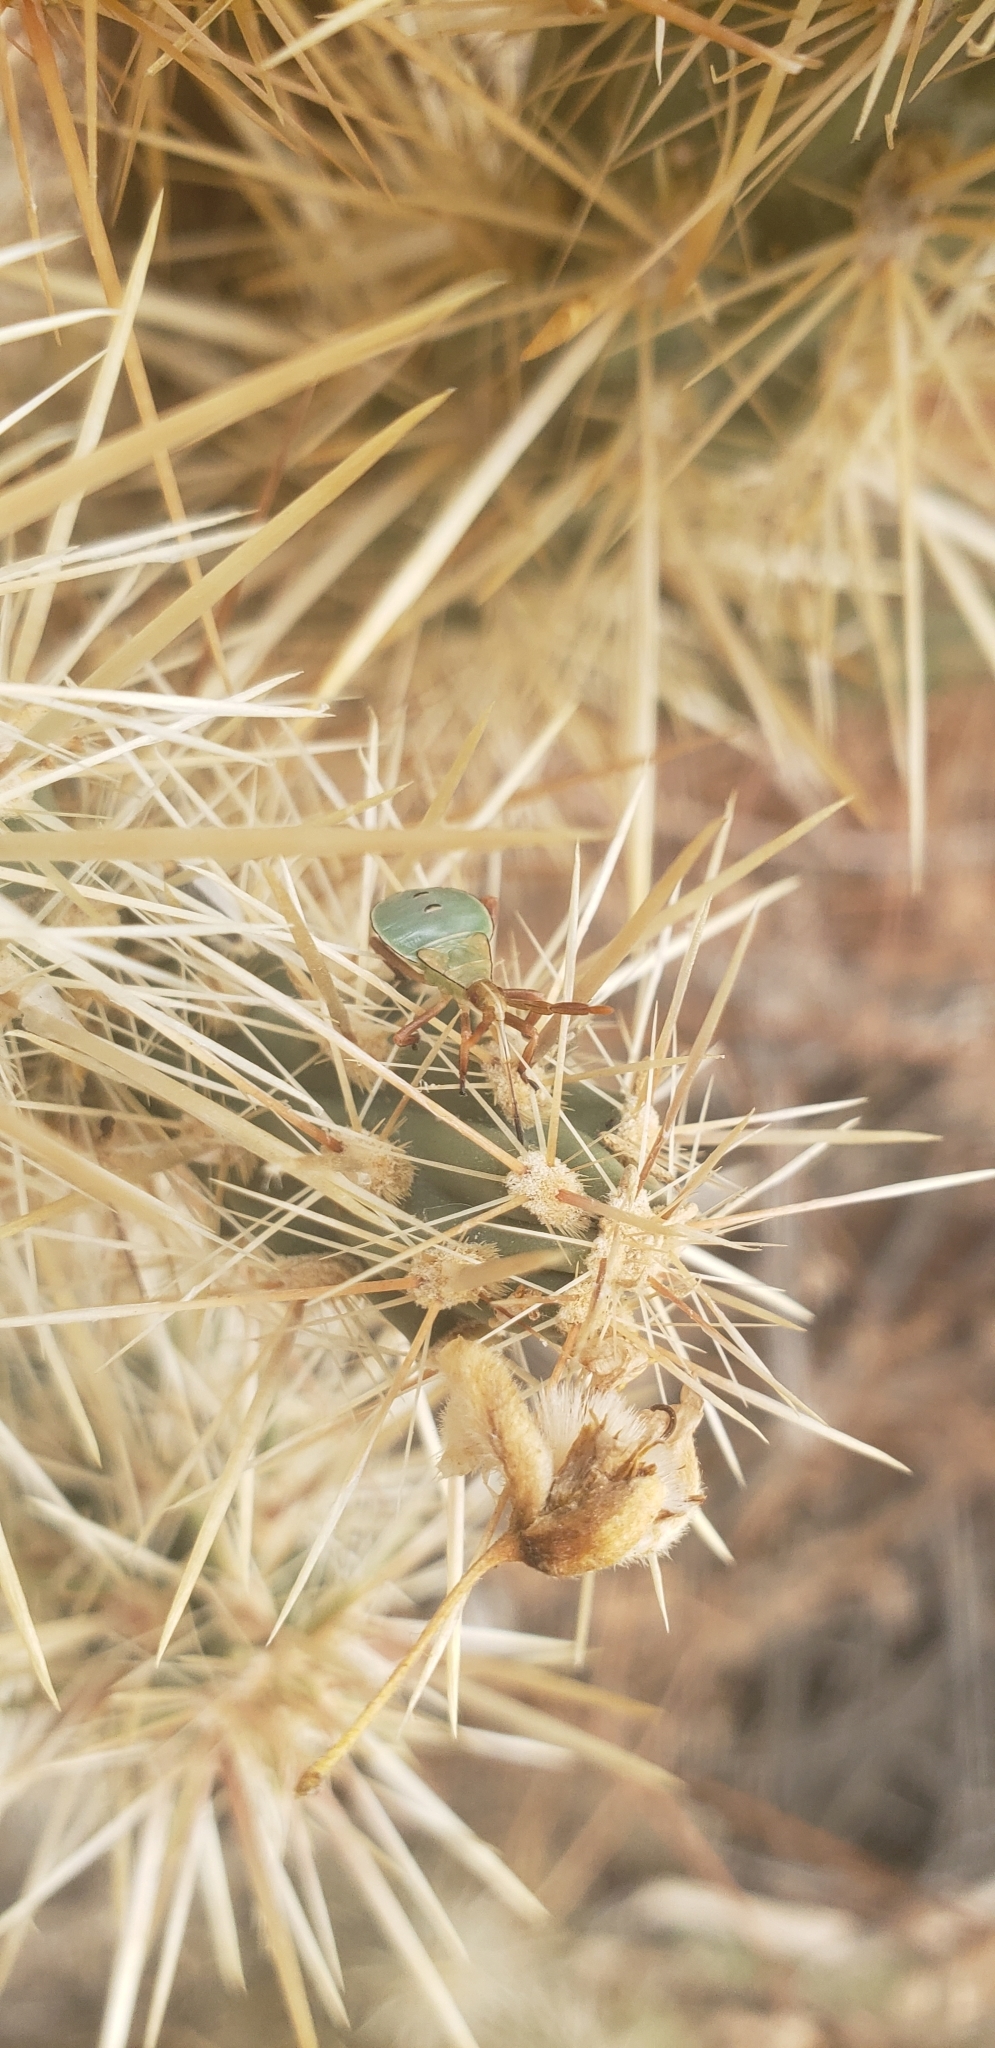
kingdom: Animalia
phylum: Arthropoda
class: Insecta
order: Hemiptera
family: Coreidae
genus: Chelinidea
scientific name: Chelinidea vittiger
